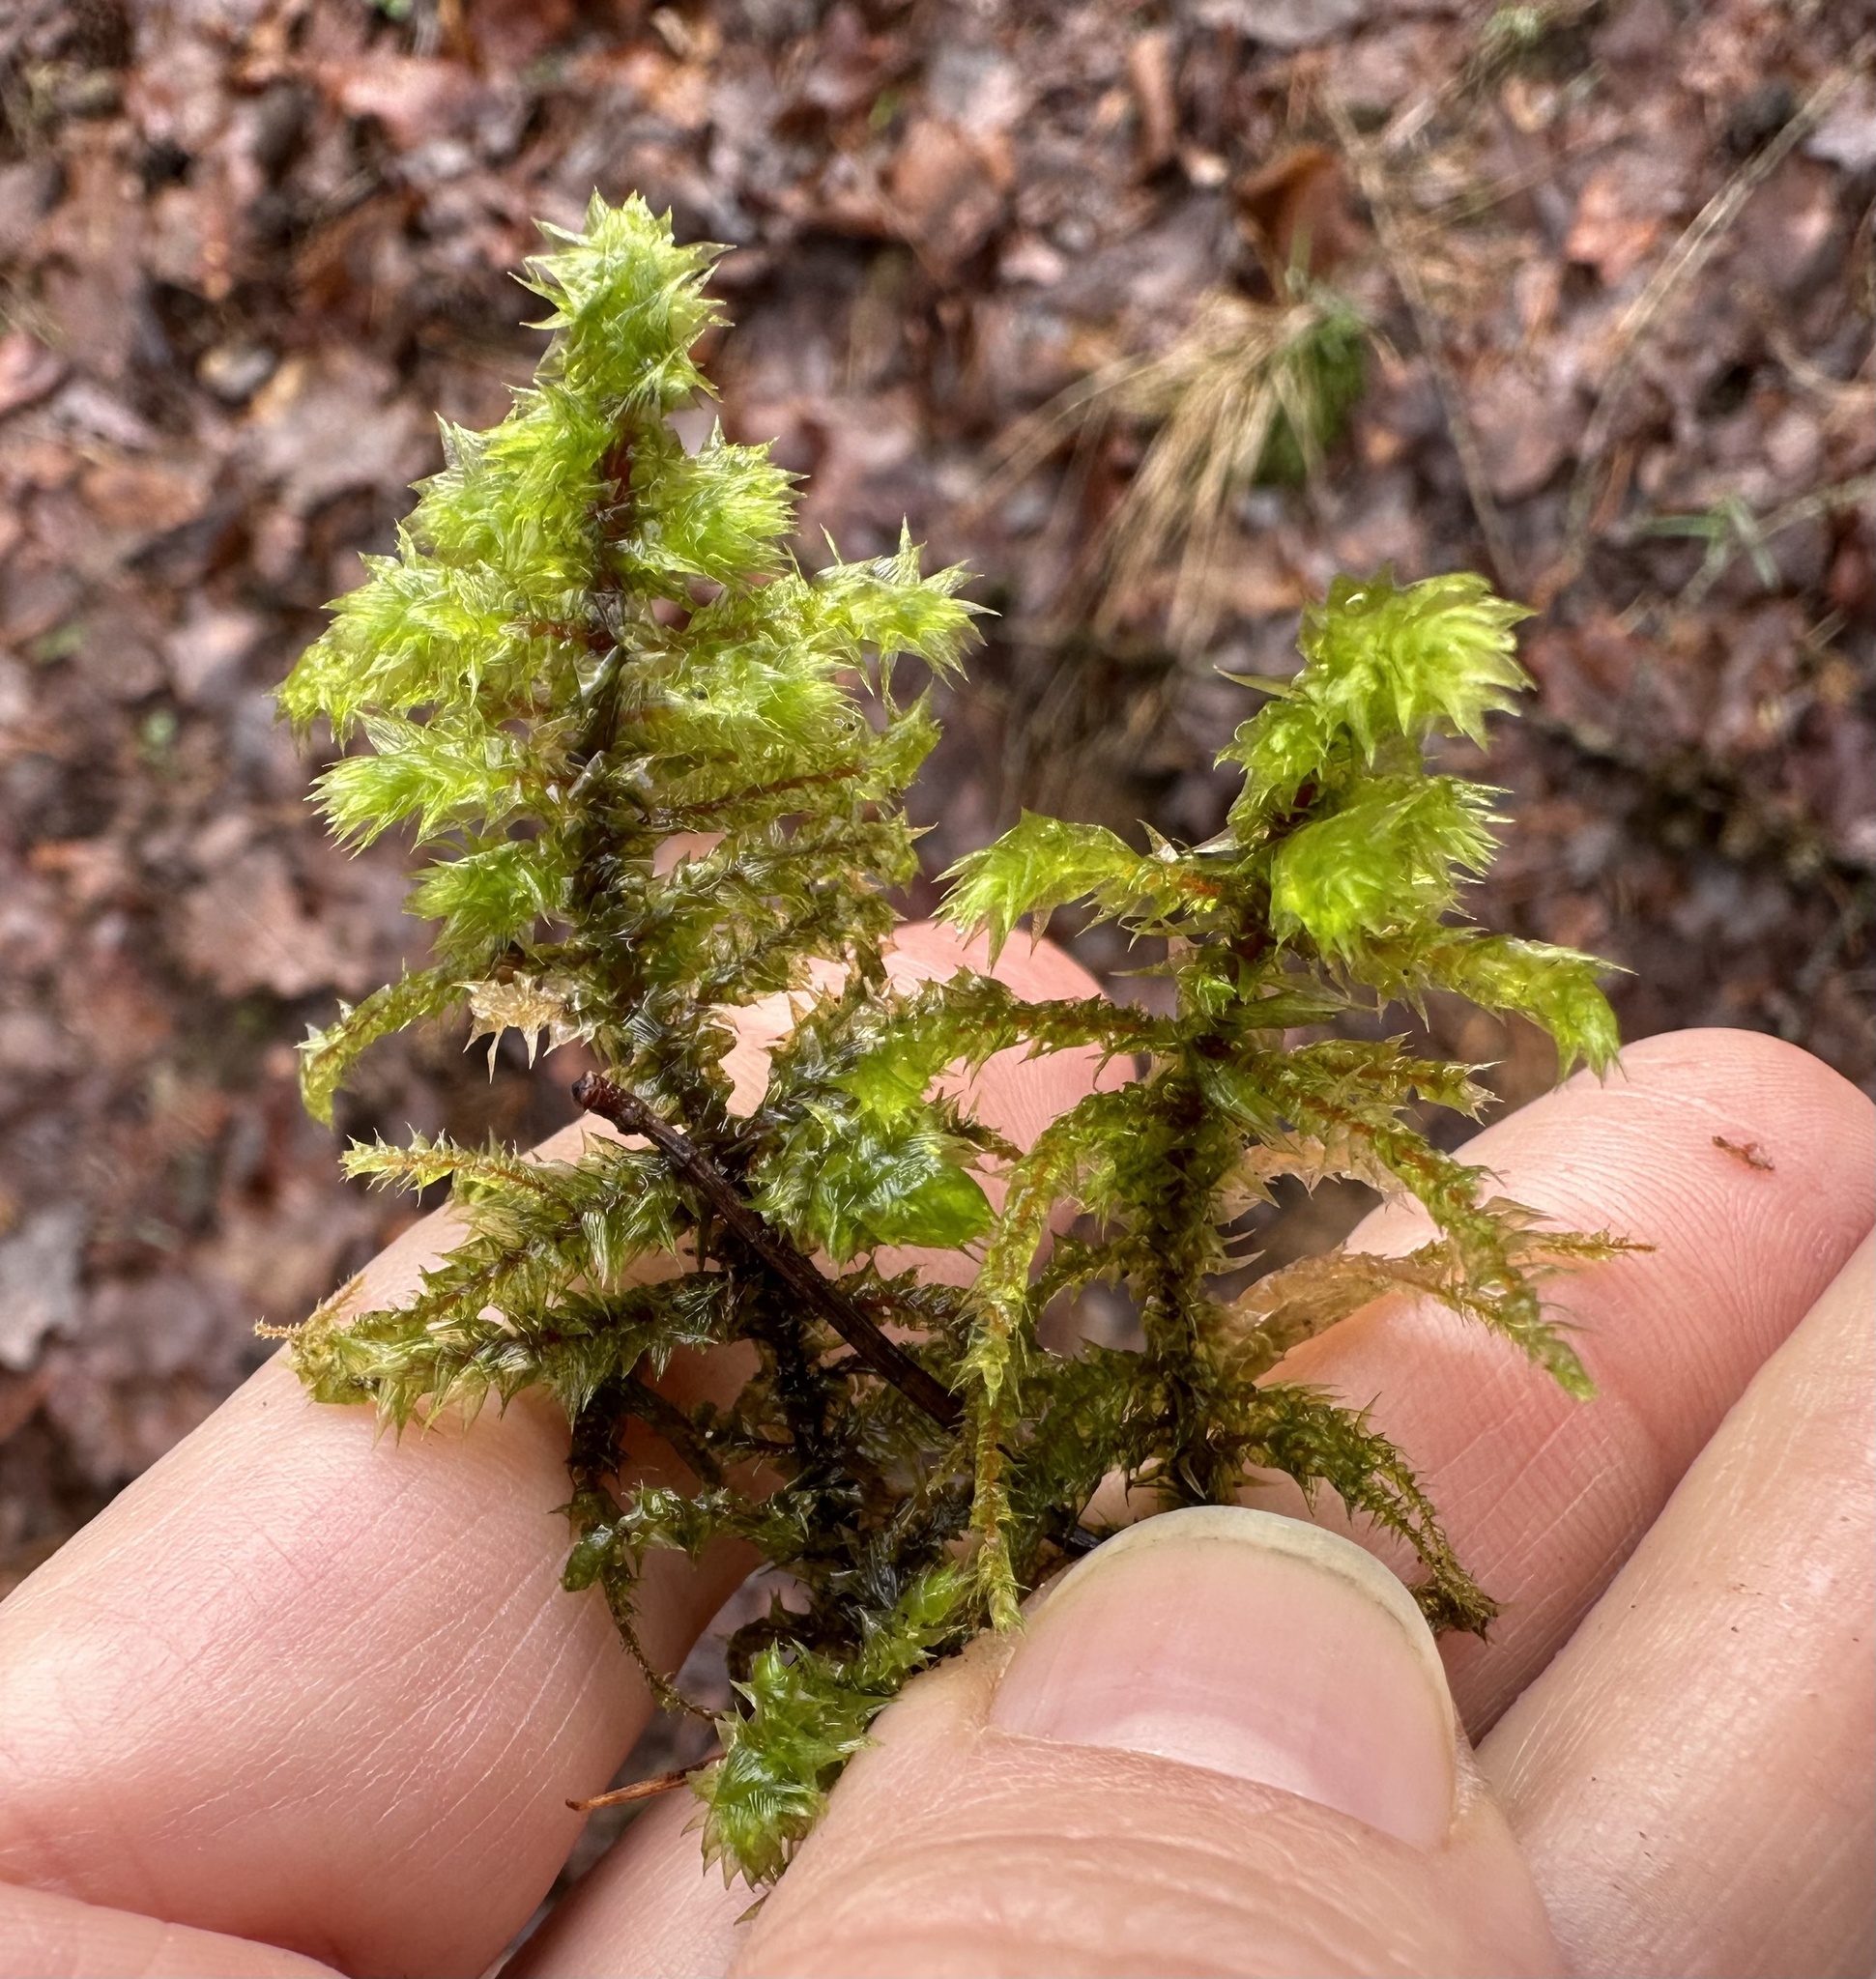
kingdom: Plantae
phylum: Bryophyta
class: Bryopsida
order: Hypnales
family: Hylocomiaceae
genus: Hylocomiadelphus
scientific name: Hylocomiadelphus triquetrus
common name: Rough goose neck moss
